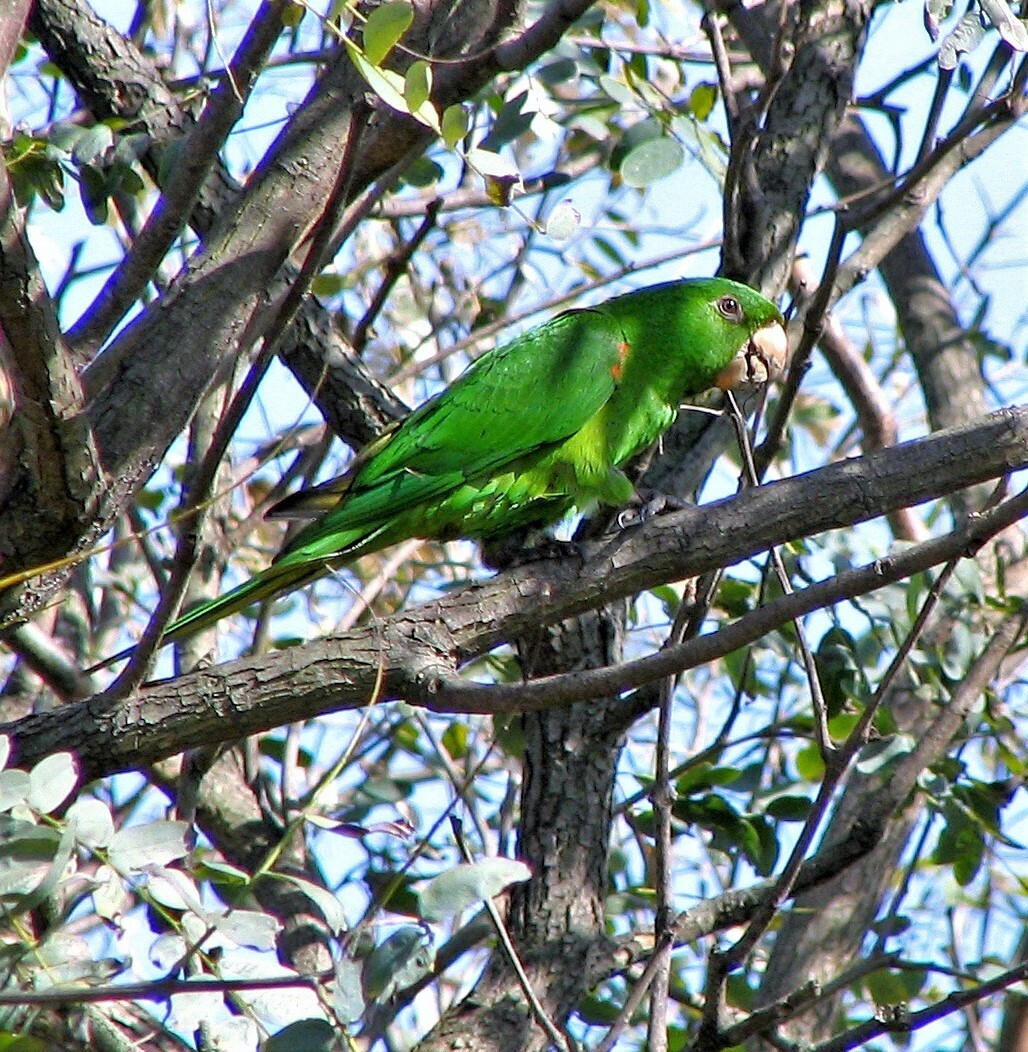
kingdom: Animalia
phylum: Chordata
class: Aves
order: Psittaciformes
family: Psittacidae
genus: Aratinga
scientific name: Aratinga leucophthalma
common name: White-eyed parakeet
